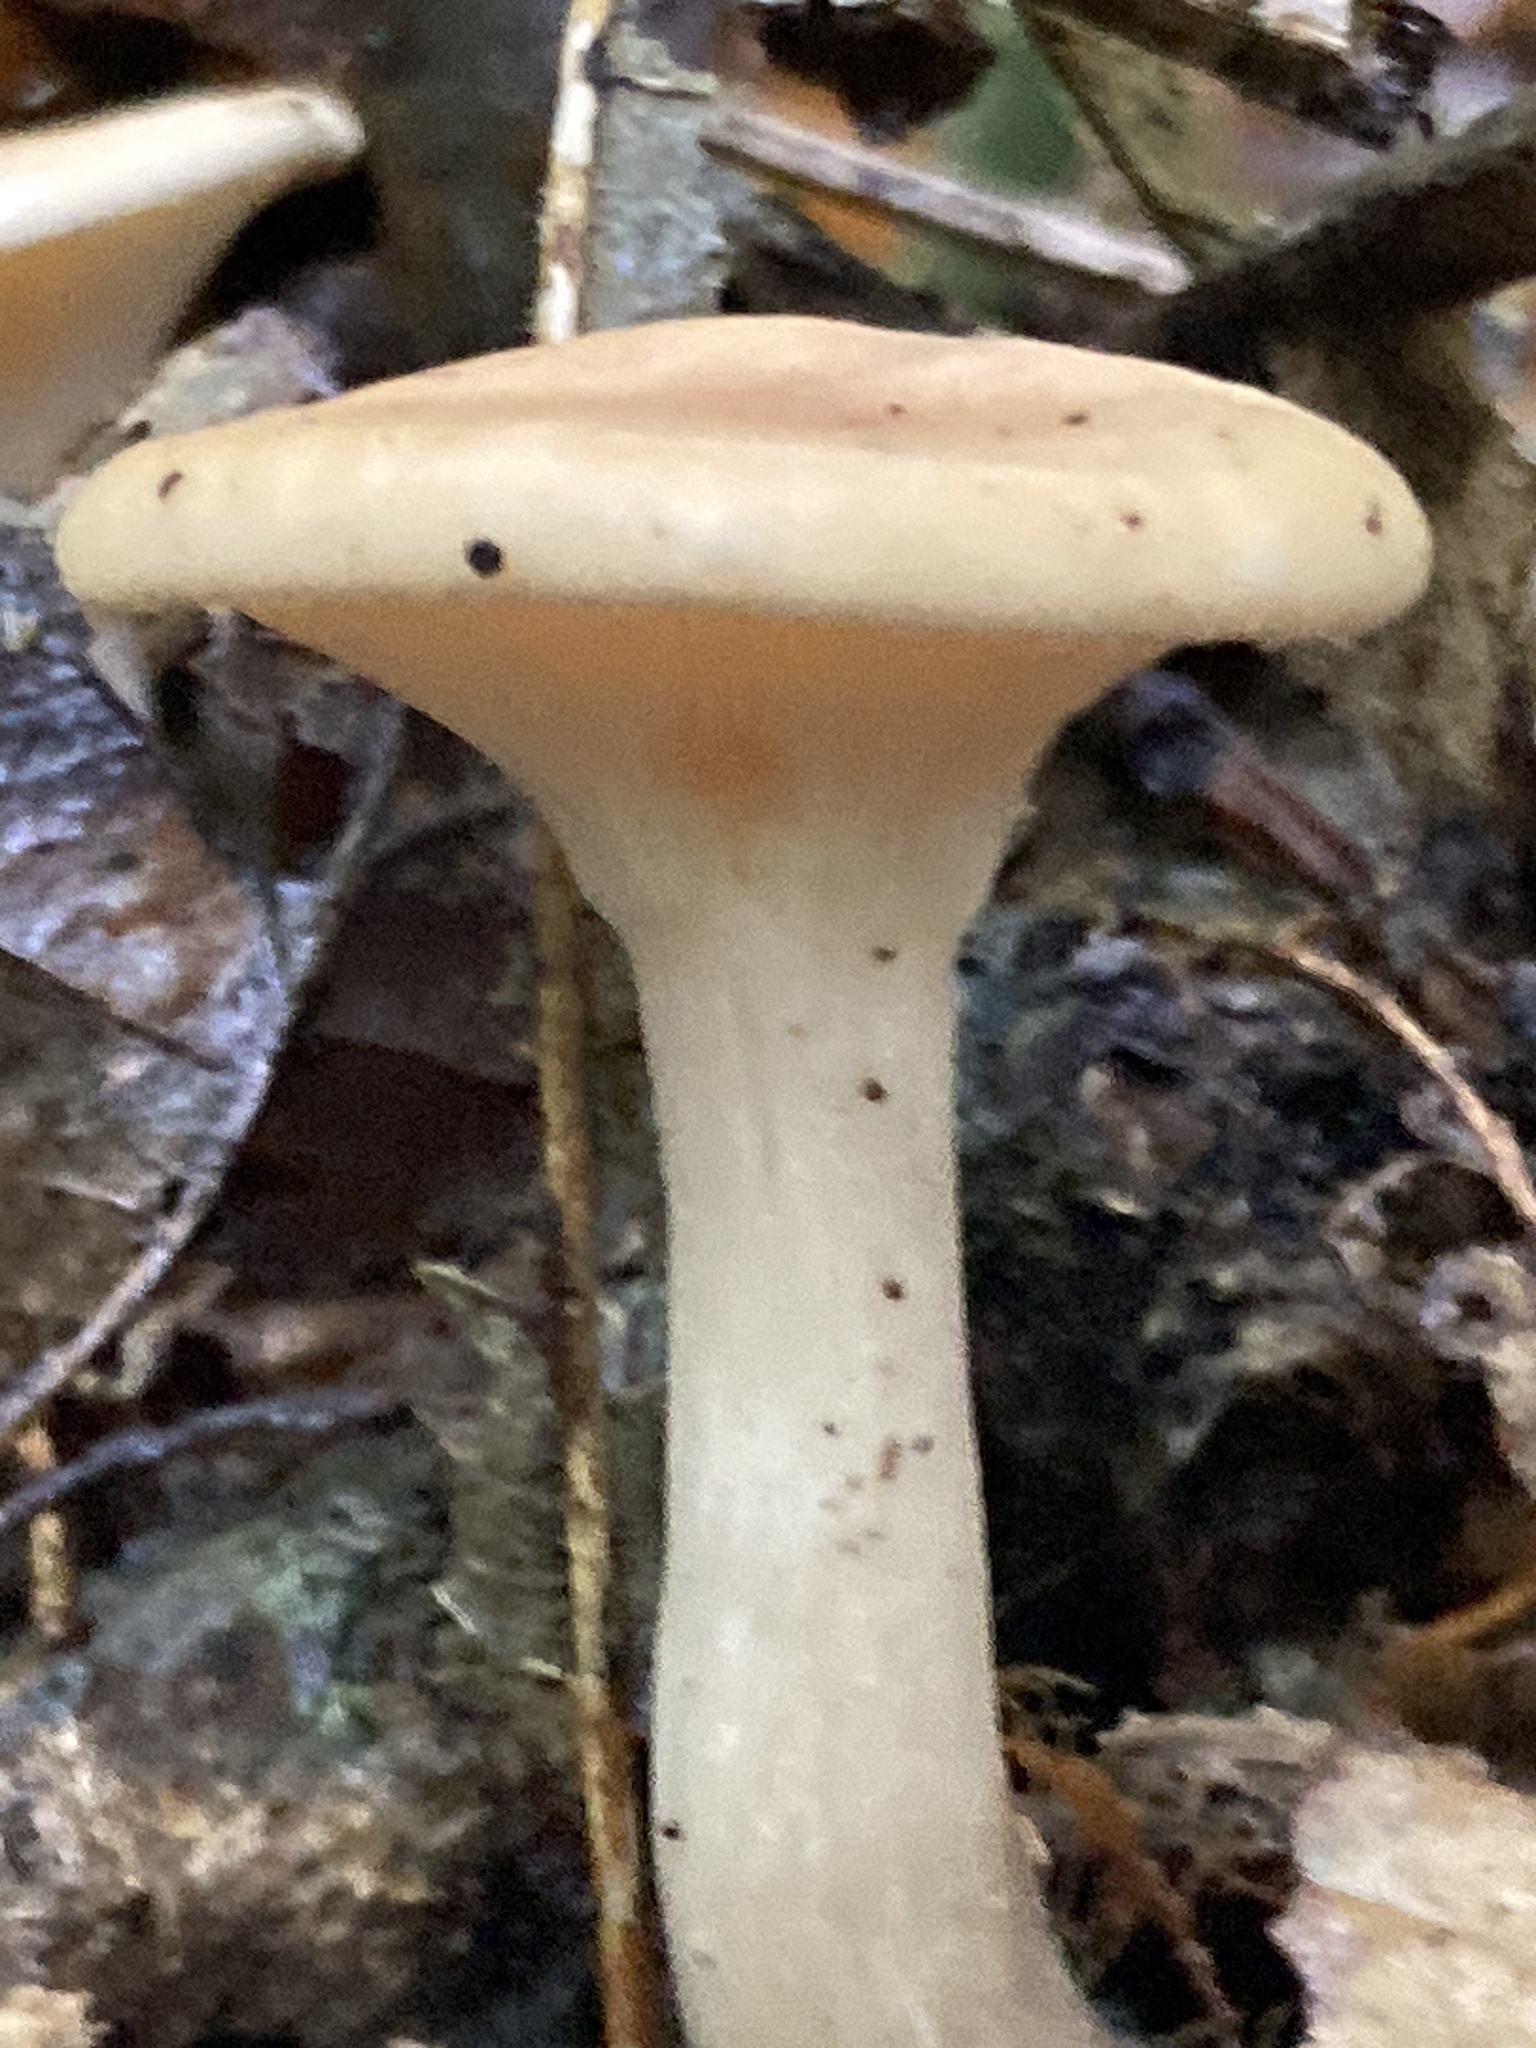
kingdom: Fungi
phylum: Basidiomycota
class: Agaricomycetes
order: Agaricales
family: Tricholomataceae
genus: Infundibulicybe
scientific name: Infundibulicybe gibba
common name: Common funnel
